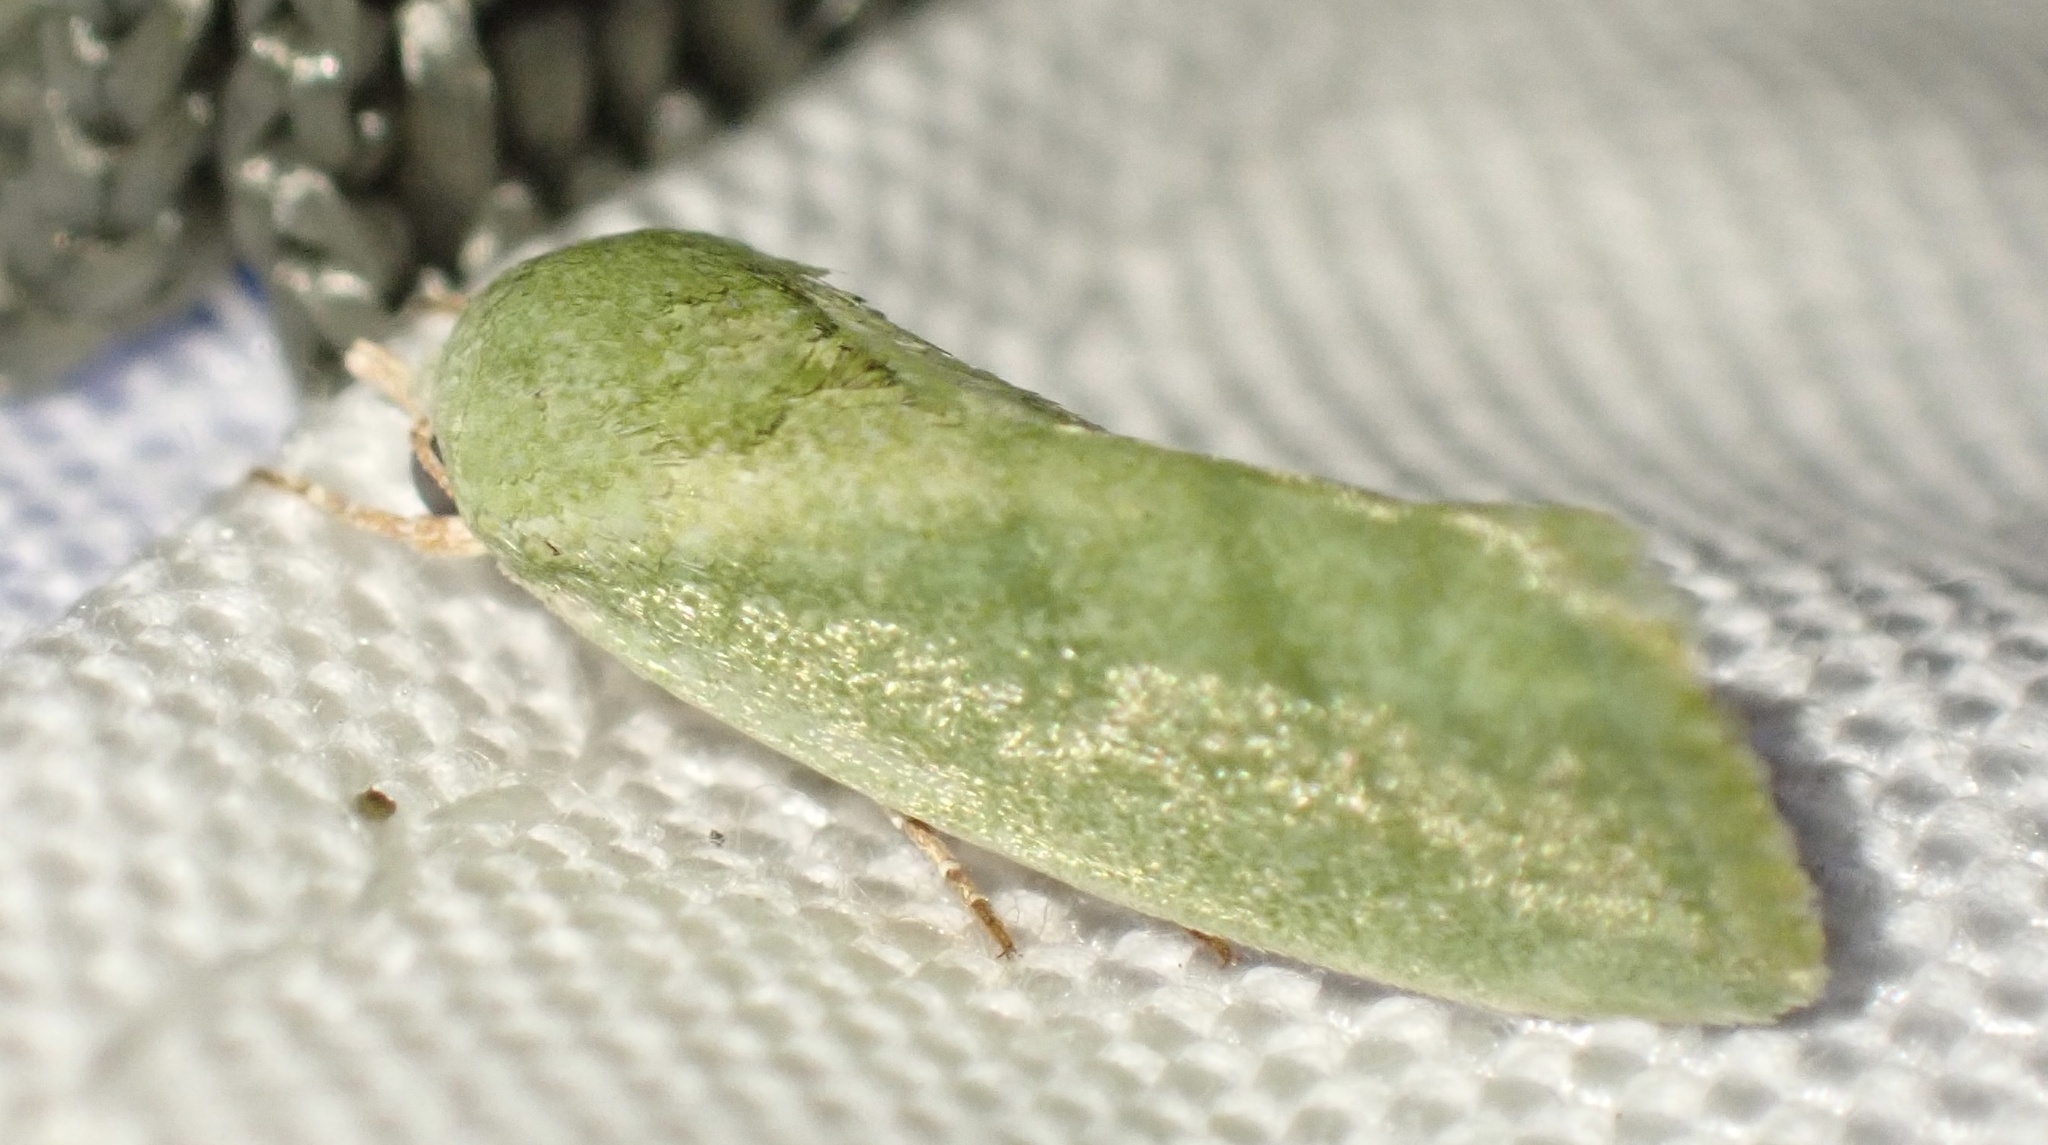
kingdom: Animalia
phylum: Arthropoda
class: Insecta
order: Lepidoptera
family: Nolidae
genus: Earias
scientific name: Earias insulana
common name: Egyptian bollworm
